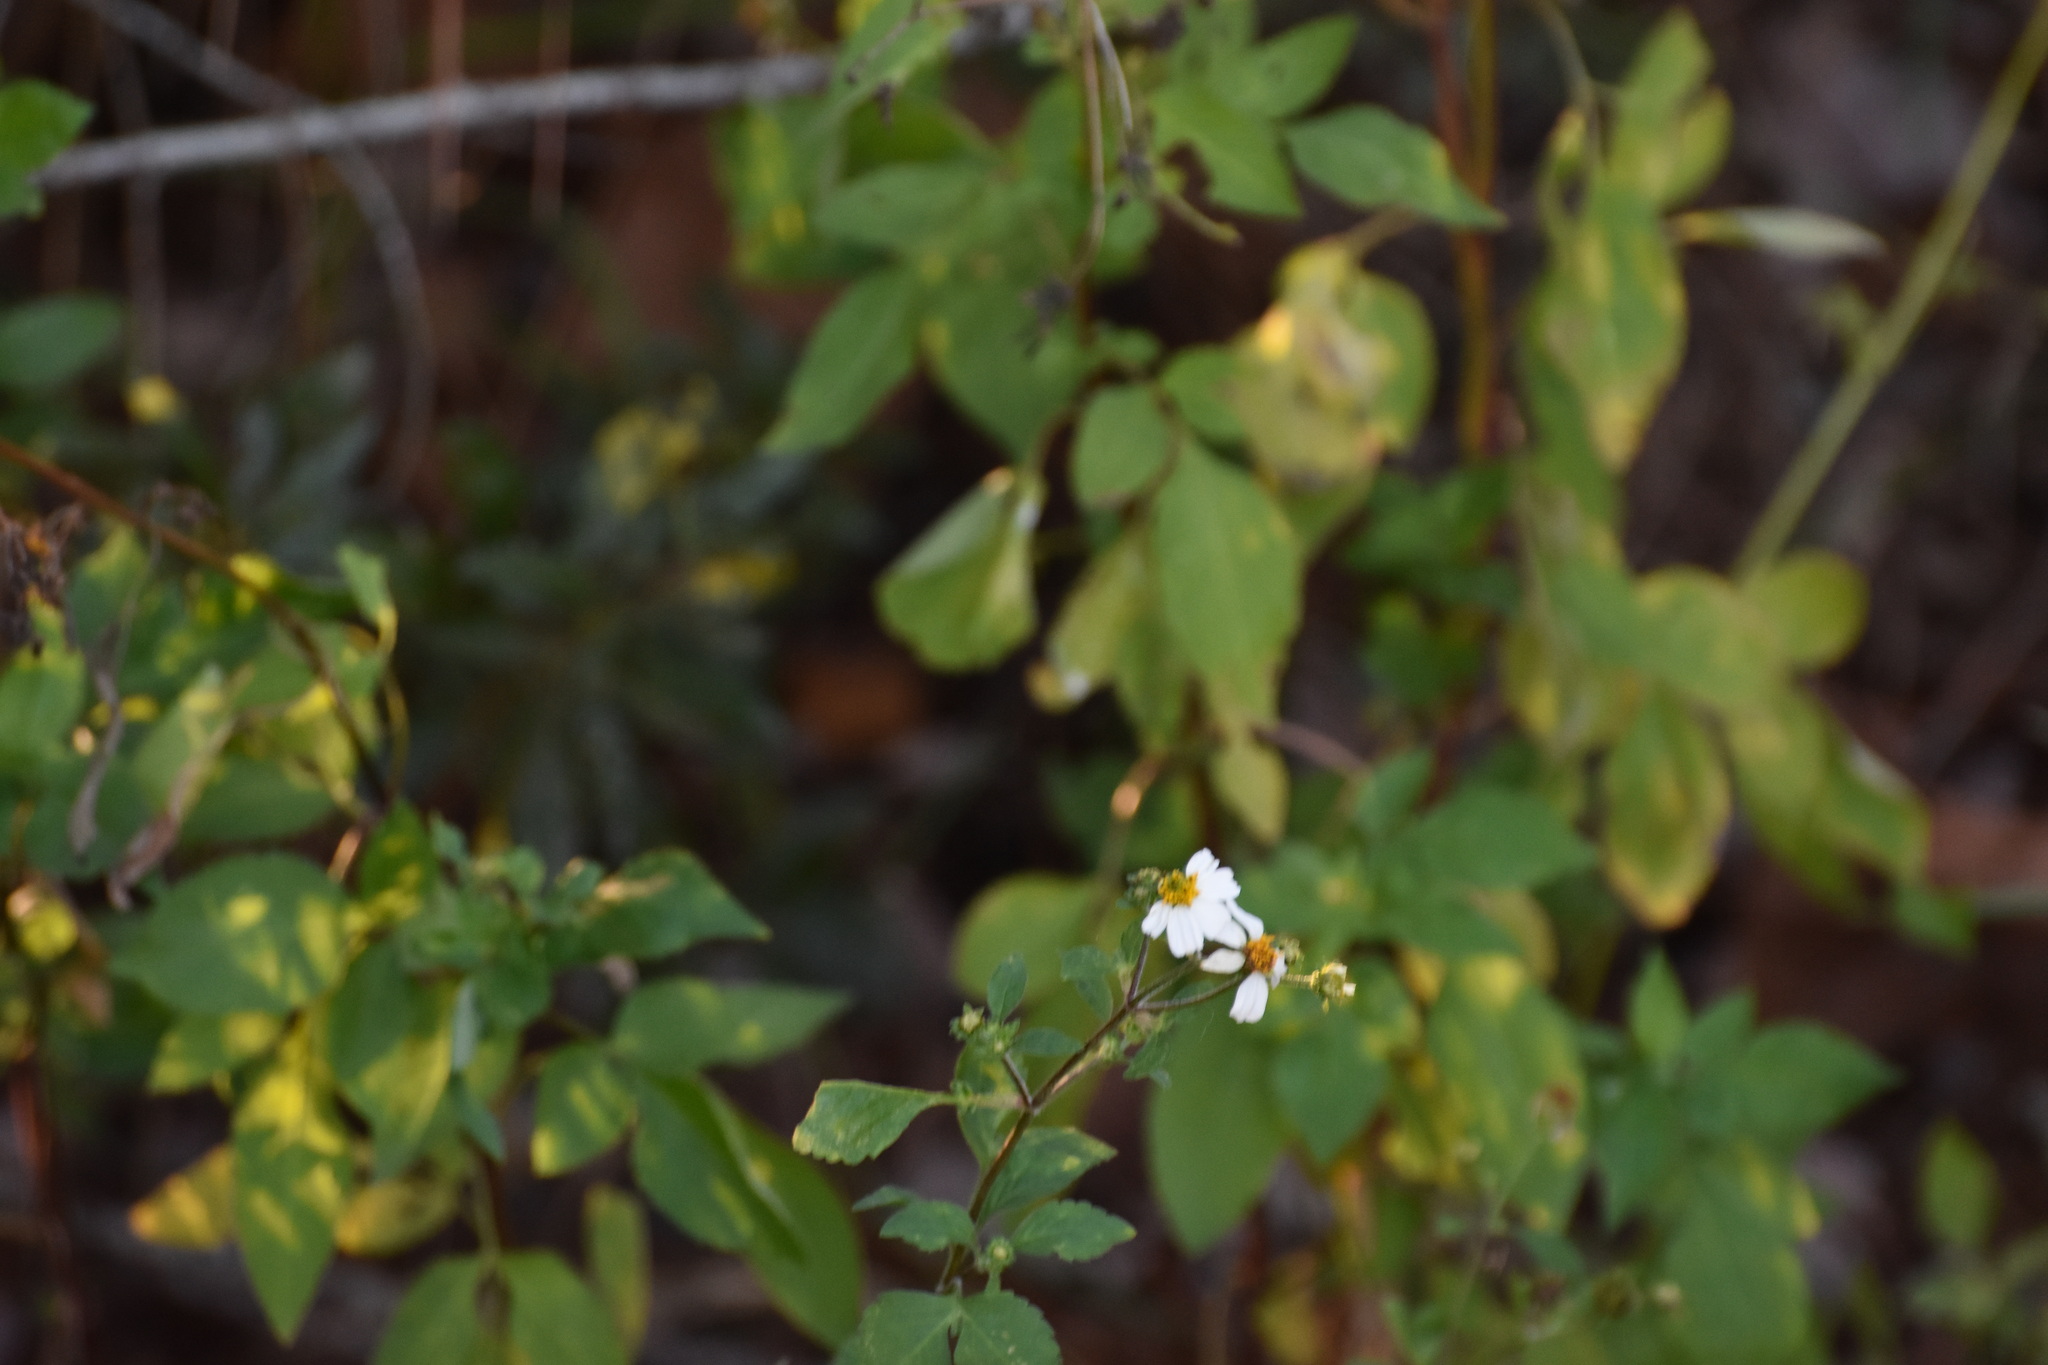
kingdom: Plantae
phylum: Tracheophyta
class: Magnoliopsida
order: Asterales
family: Asteraceae
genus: Bidens
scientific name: Bidens alba
